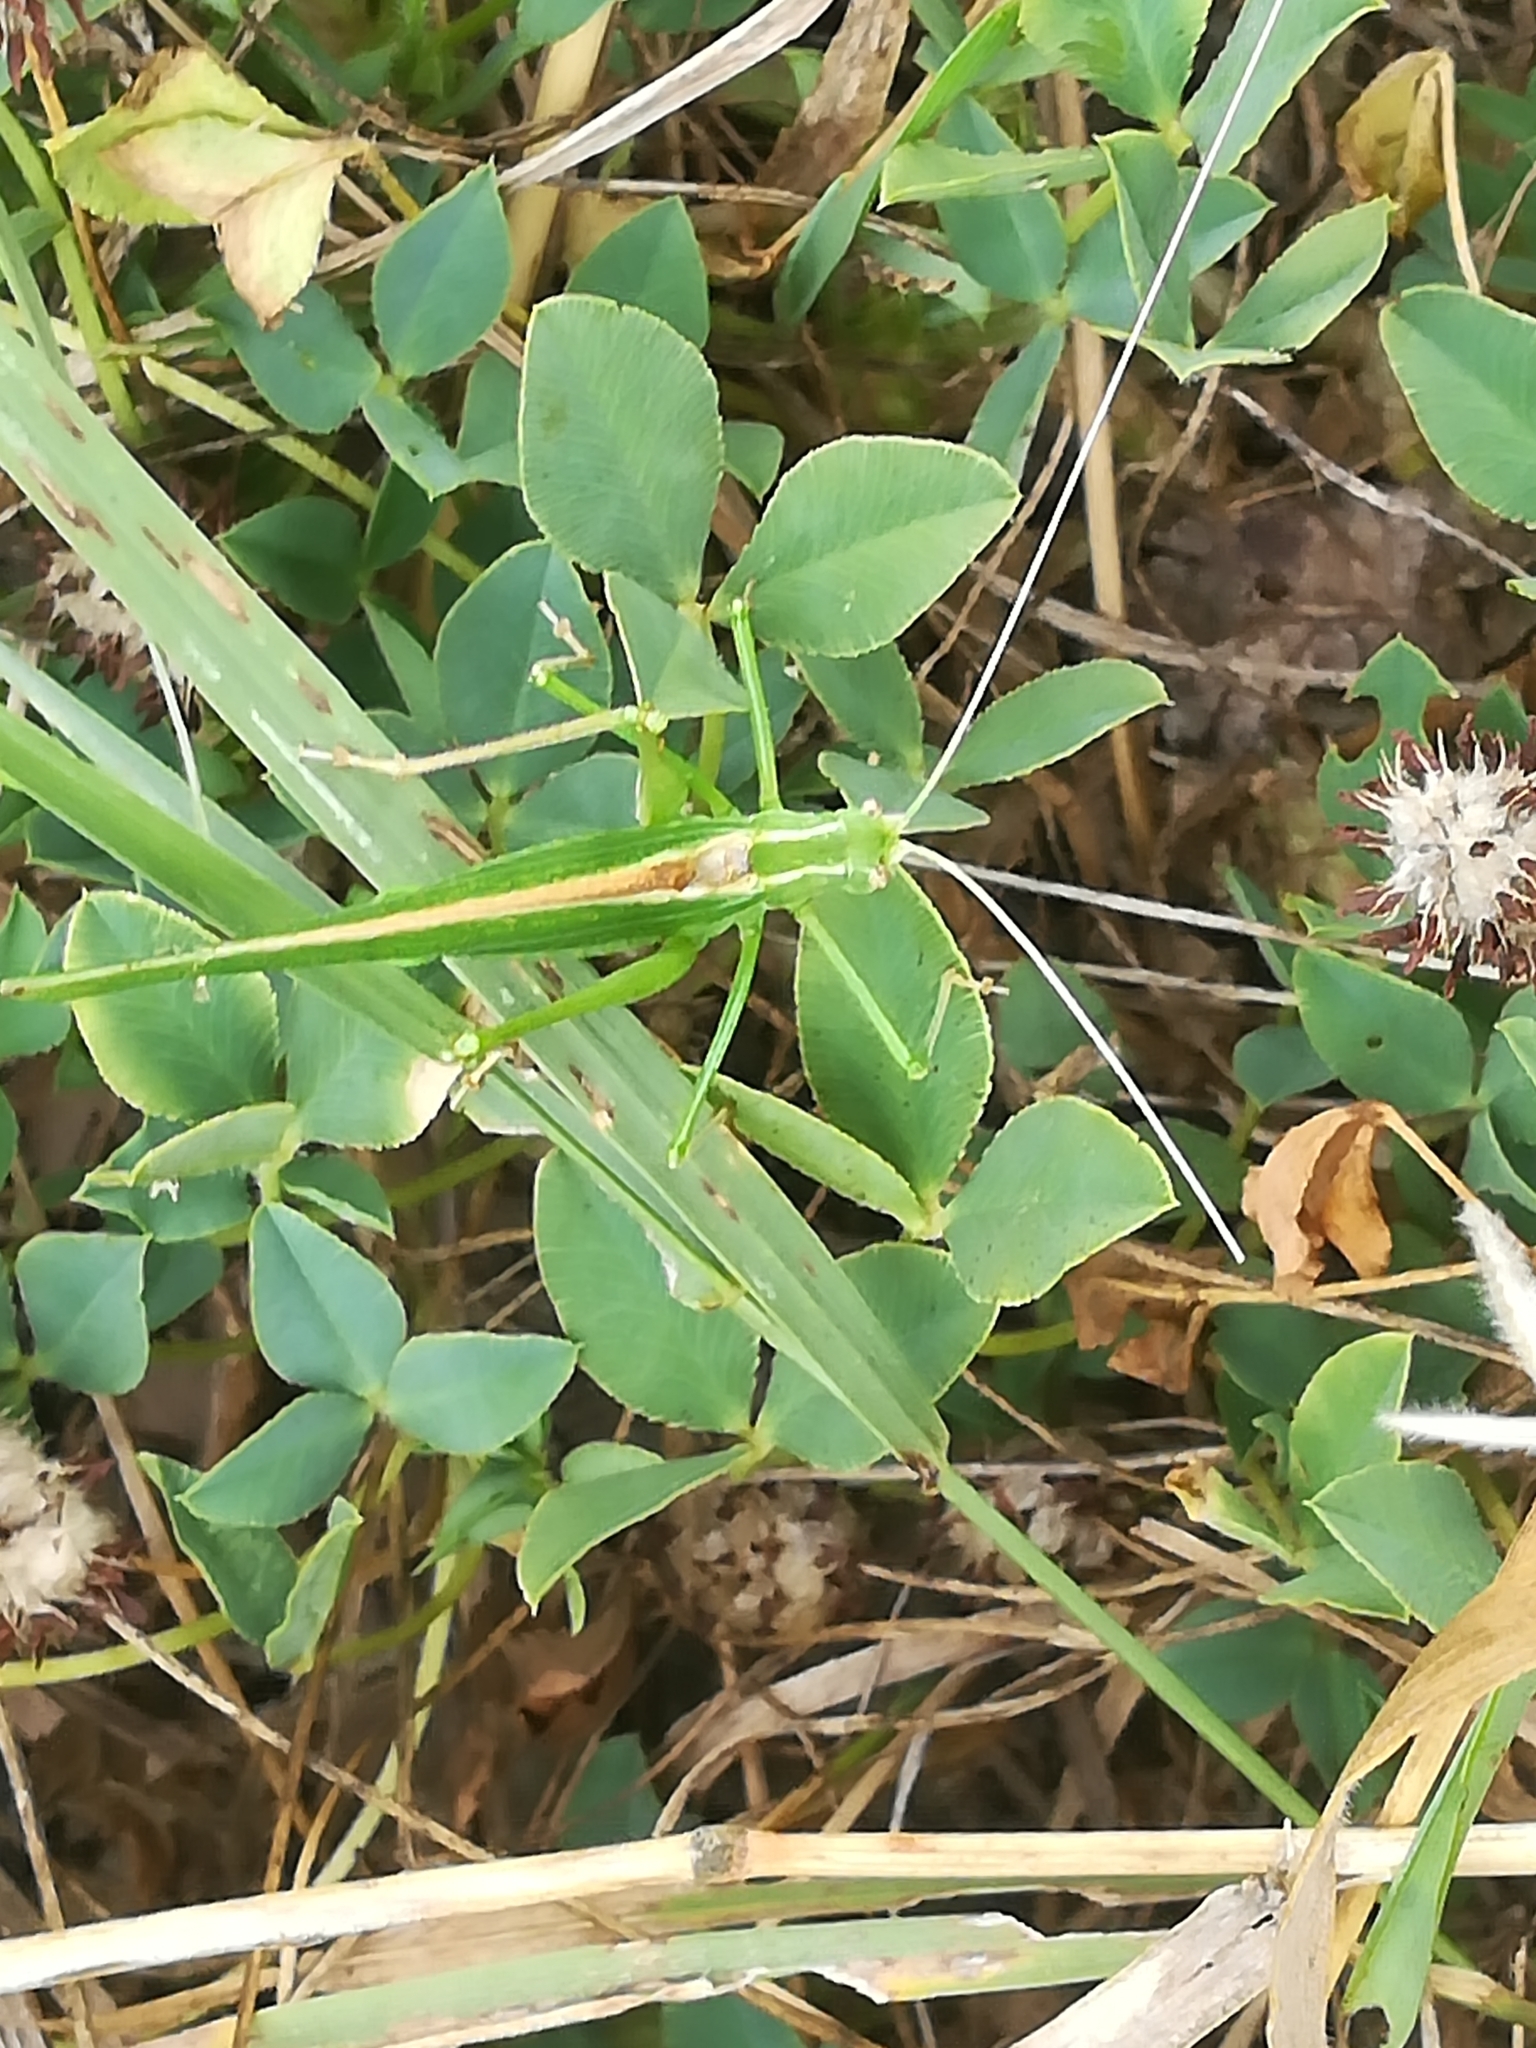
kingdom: Animalia
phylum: Arthropoda
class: Insecta
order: Orthoptera
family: Tettigoniidae
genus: Tylopsis
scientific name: Tylopsis lilifolia
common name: Lily bush-cricket
